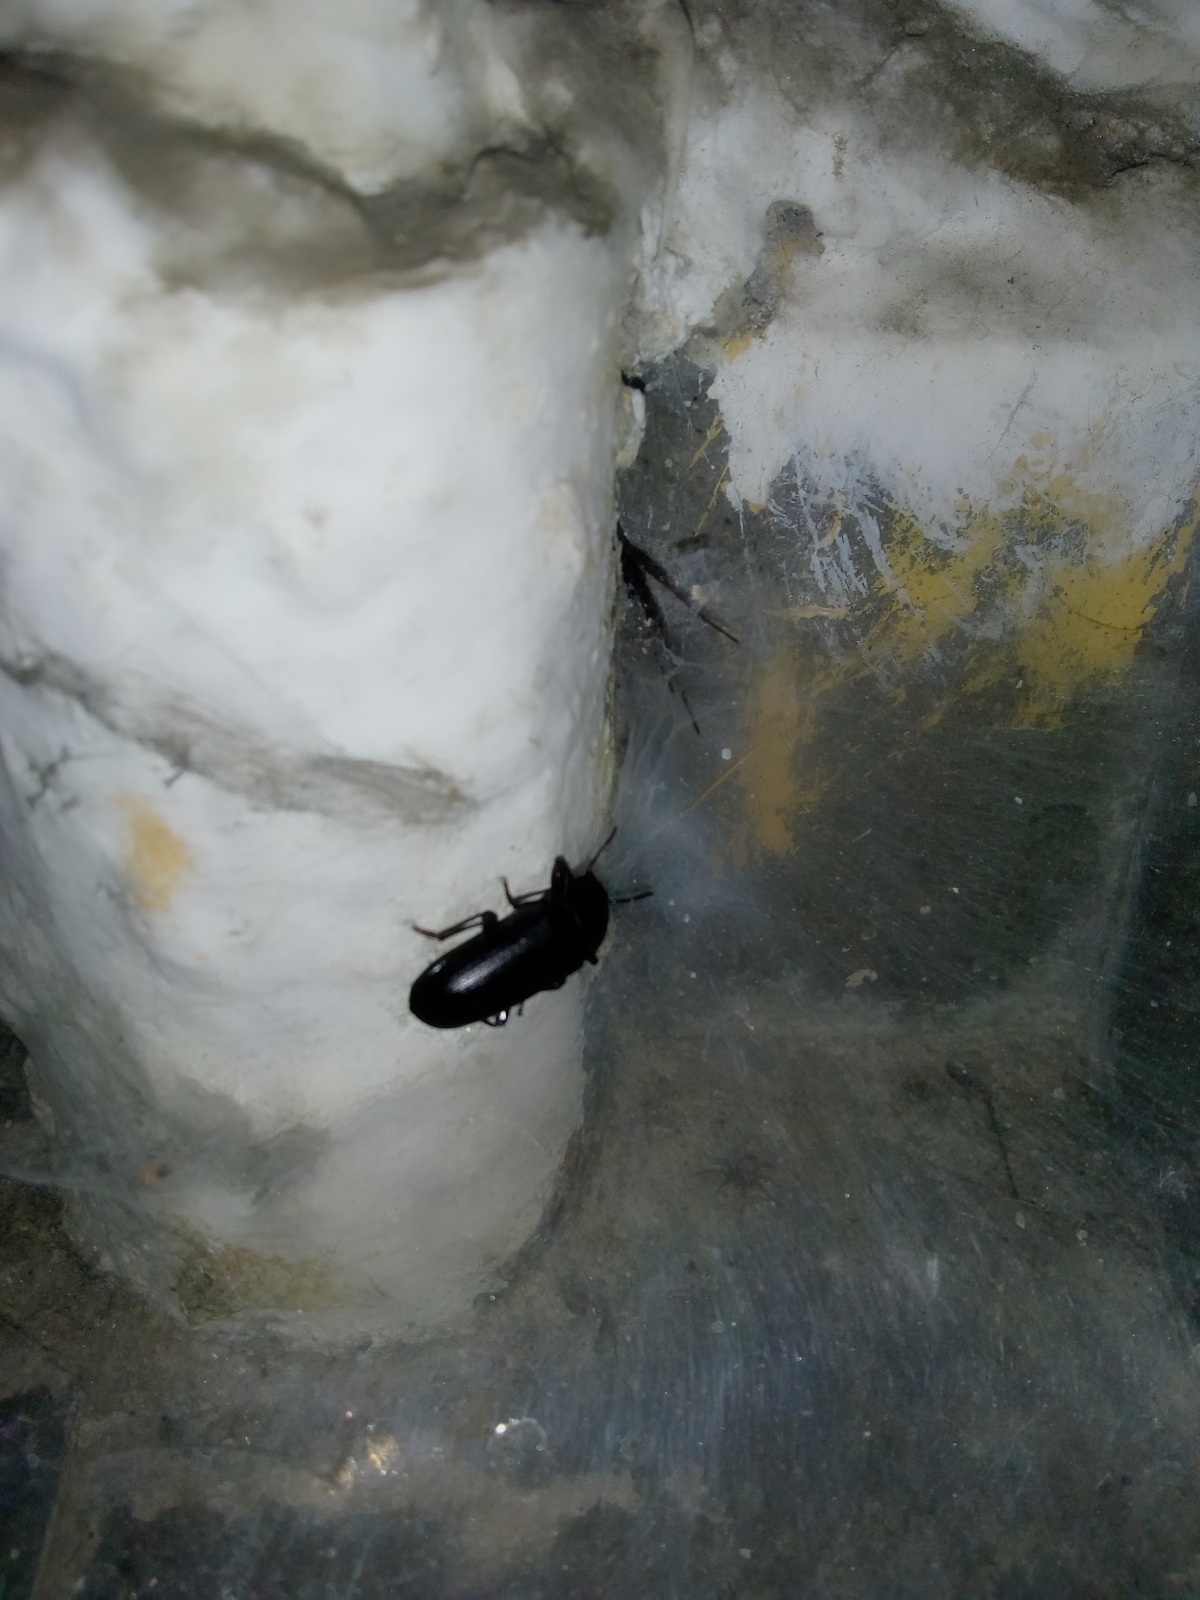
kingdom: Animalia
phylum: Arthropoda
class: Insecta
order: Coleoptera
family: Tenebrionidae
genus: Tenebrio
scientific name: Tenebrio molitor
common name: Hardback beetle
